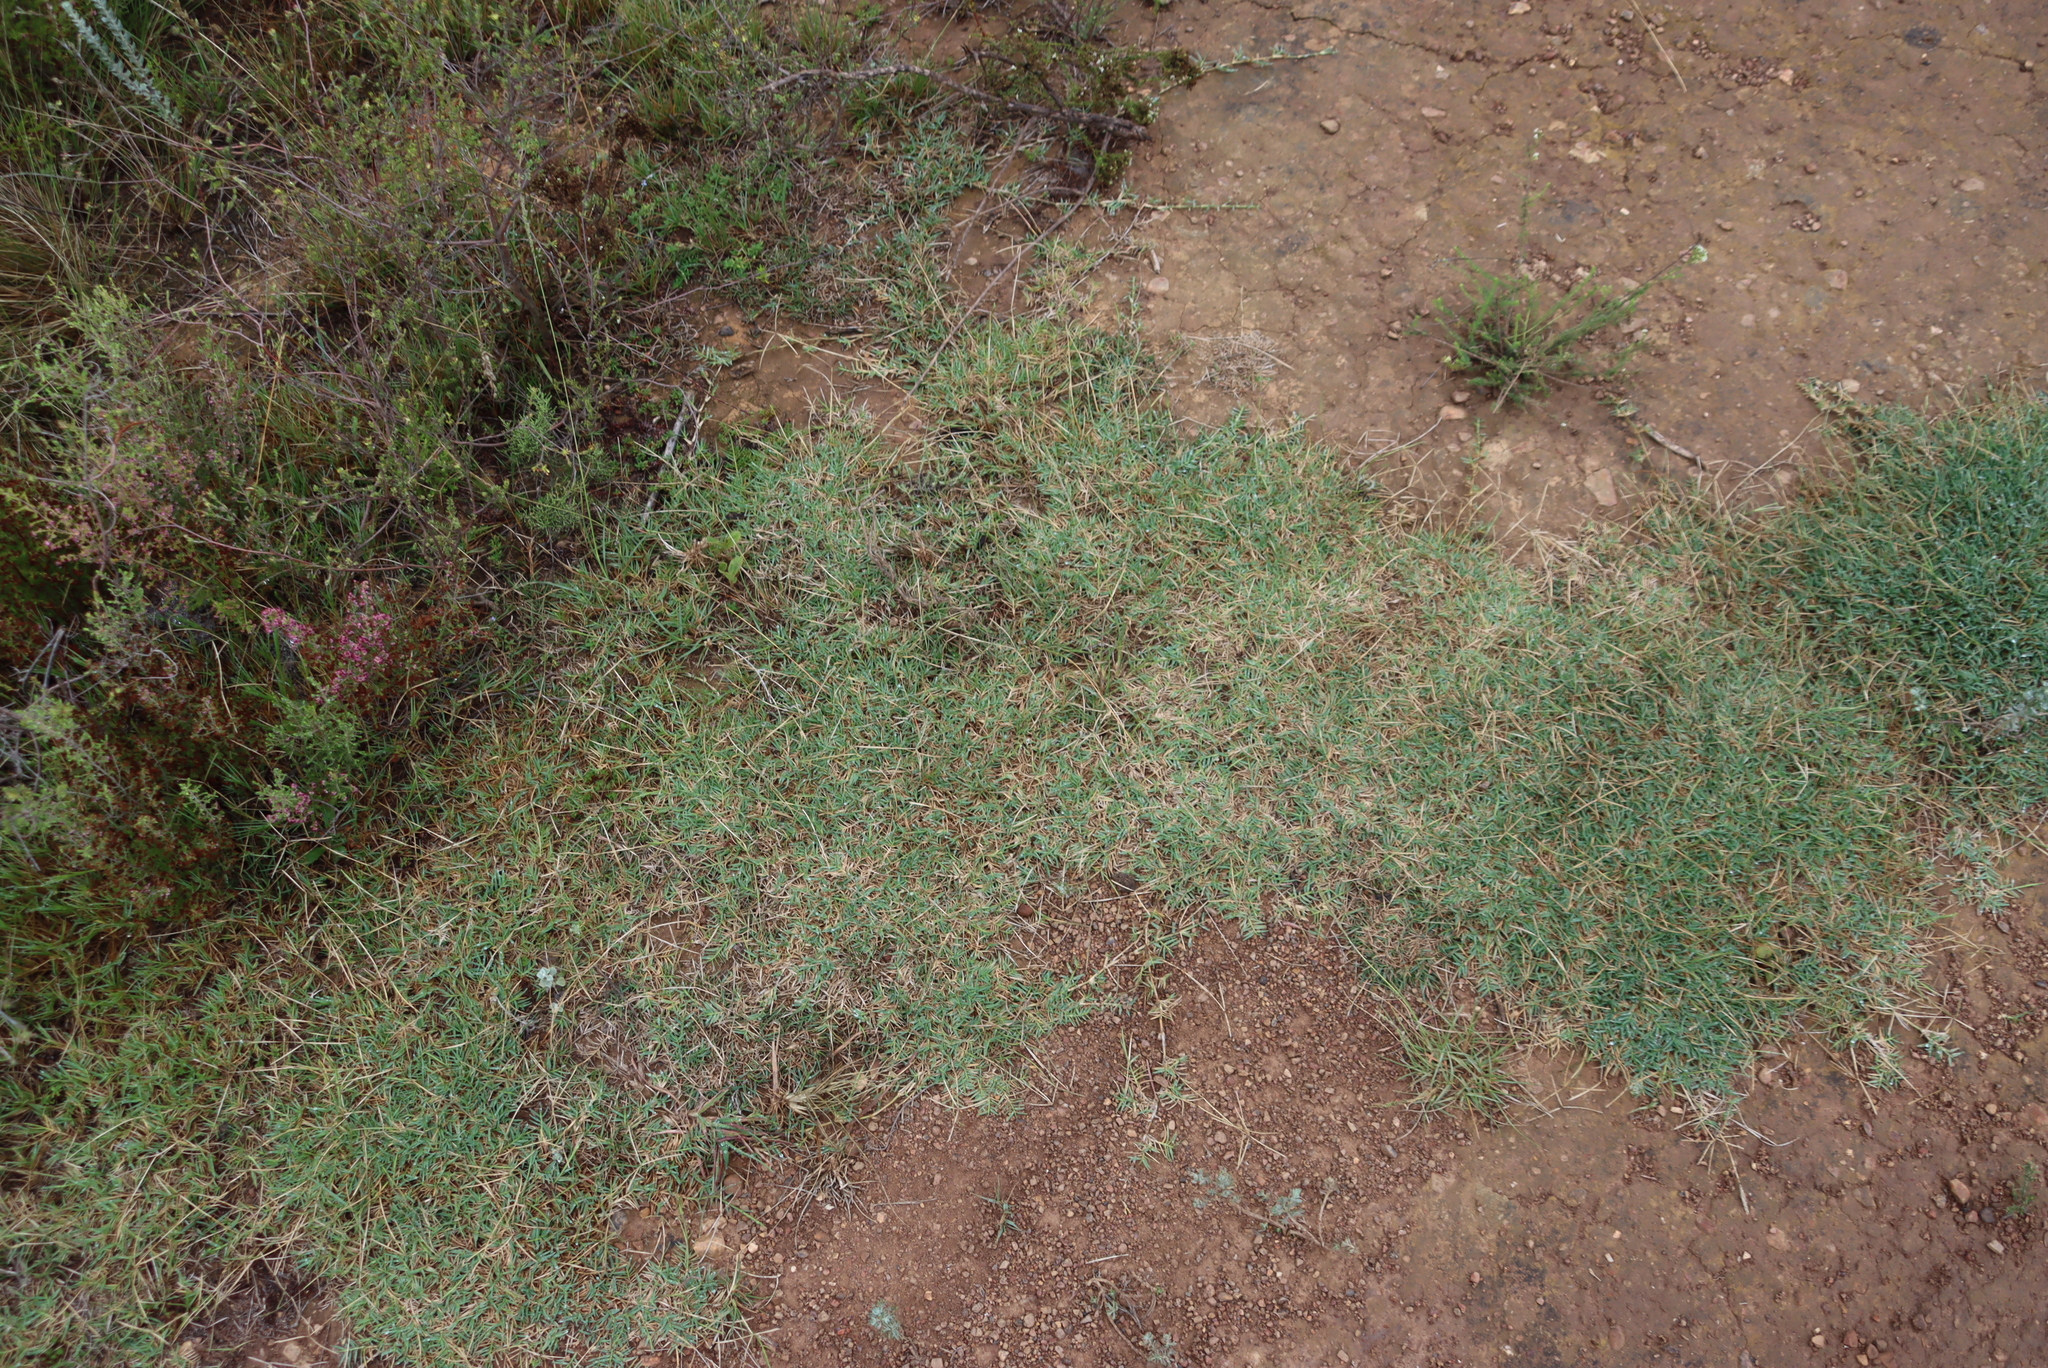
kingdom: Plantae
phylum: Tracheophyta
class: Liliopsida
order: Poales
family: Poaceae
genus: Cynodon
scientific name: Cynodon dactylon
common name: Bermuda grass
